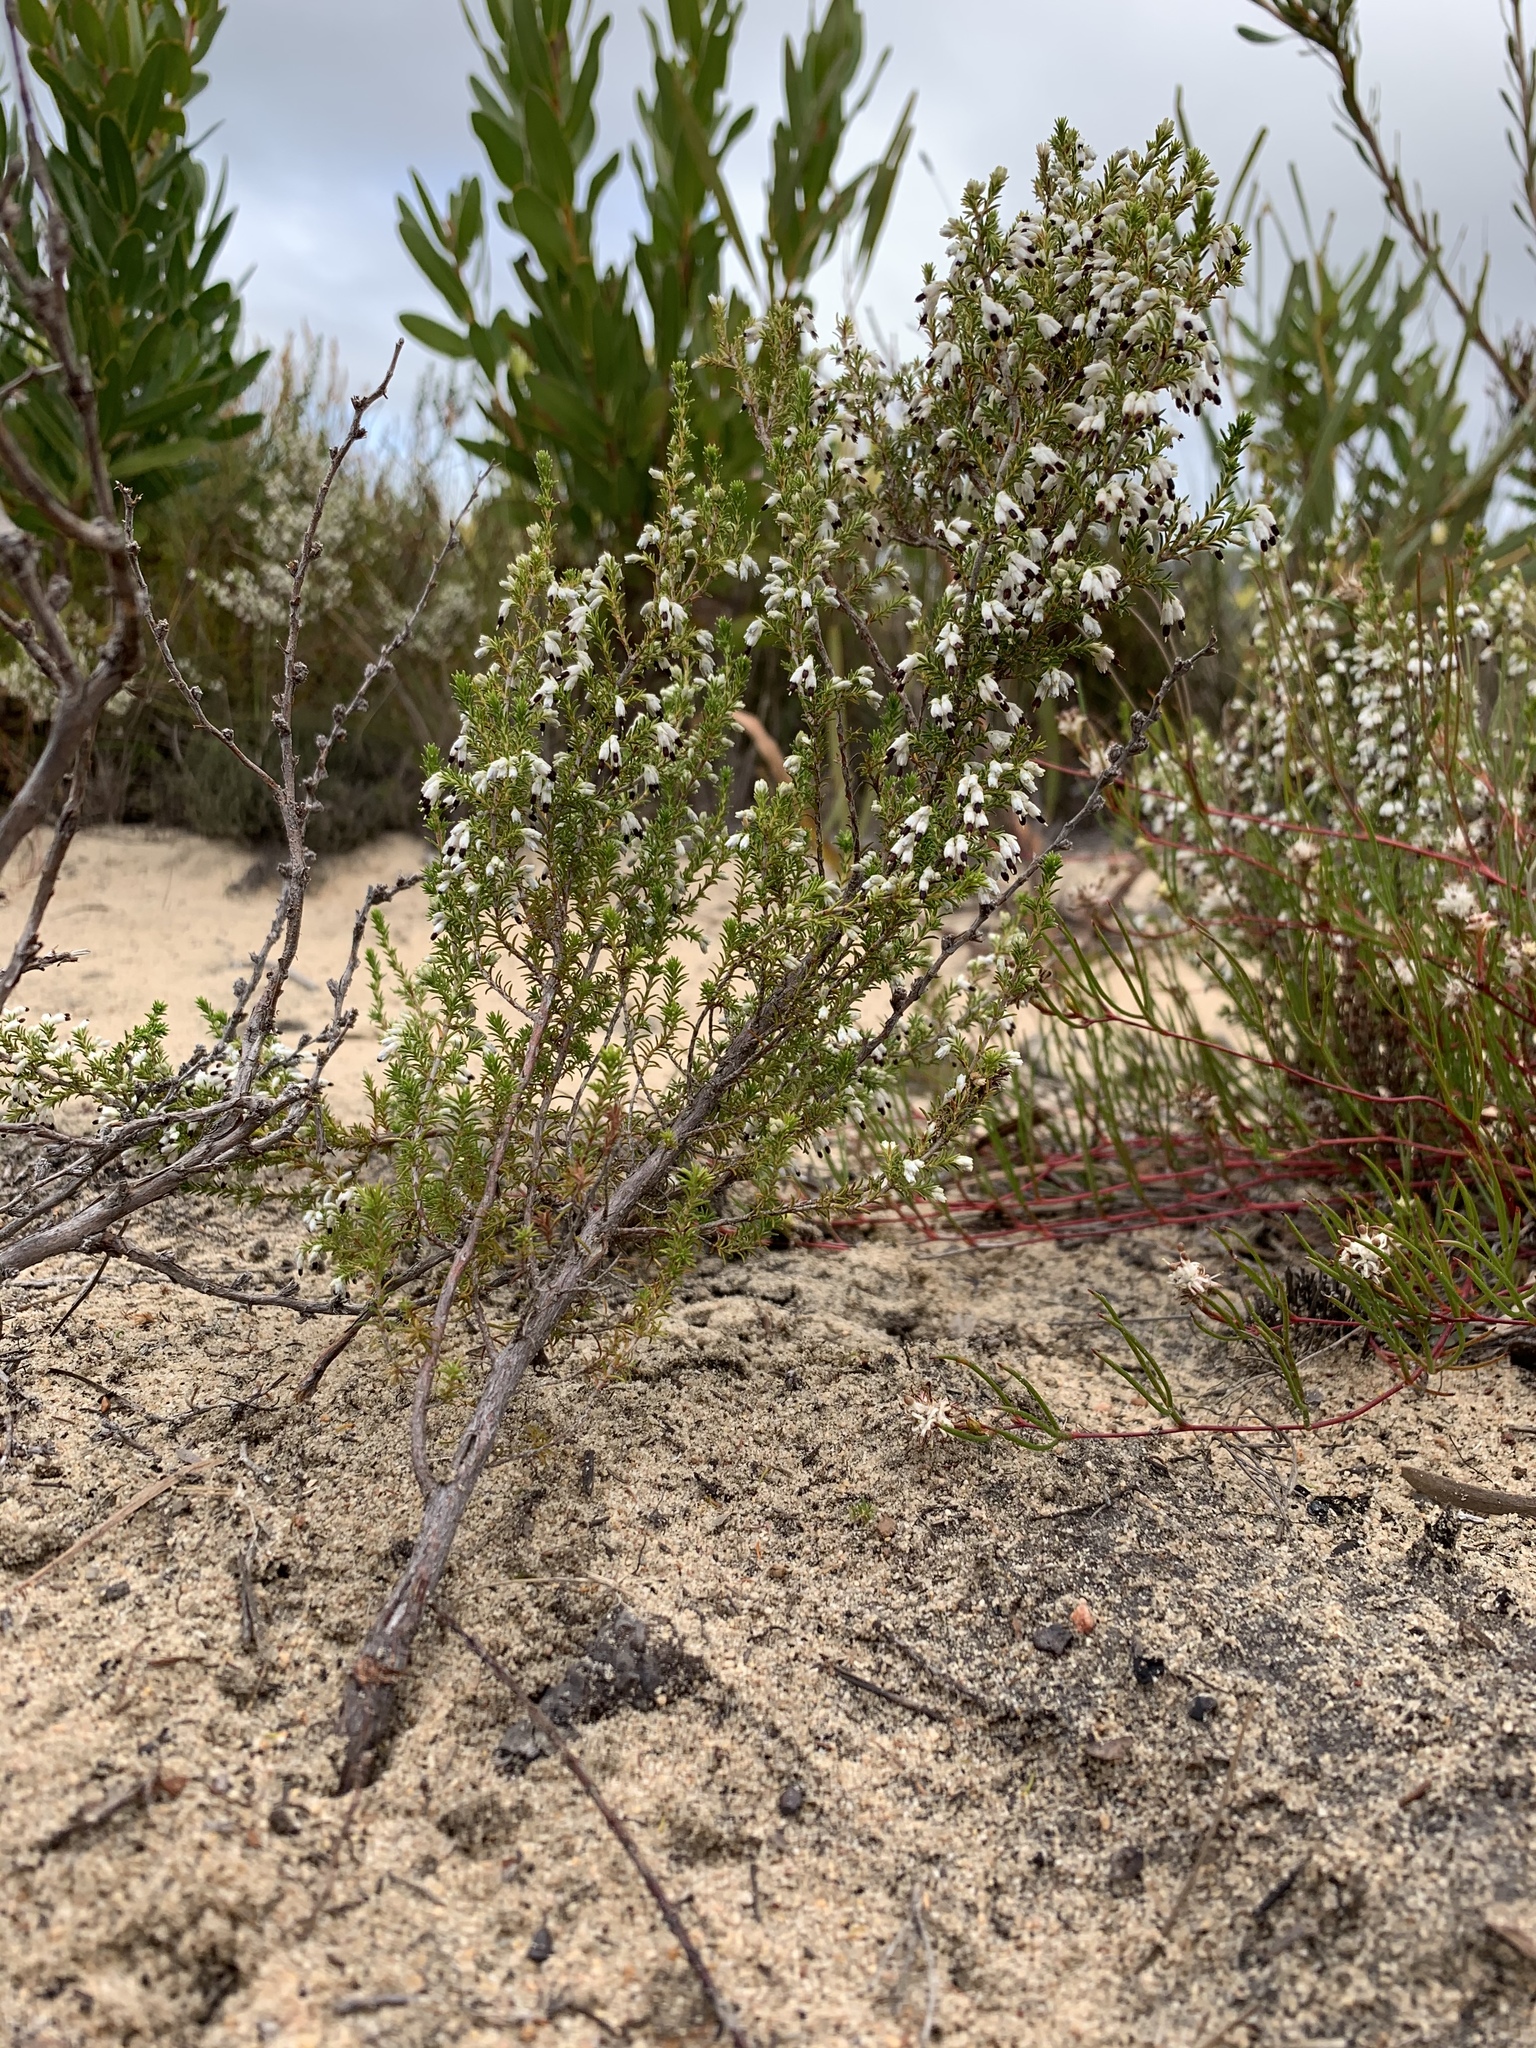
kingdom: Plantae
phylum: Tracheophyta
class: Magnoliopsida
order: Ericales
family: Ericaceae
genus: Erica
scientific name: Erica imbricata
